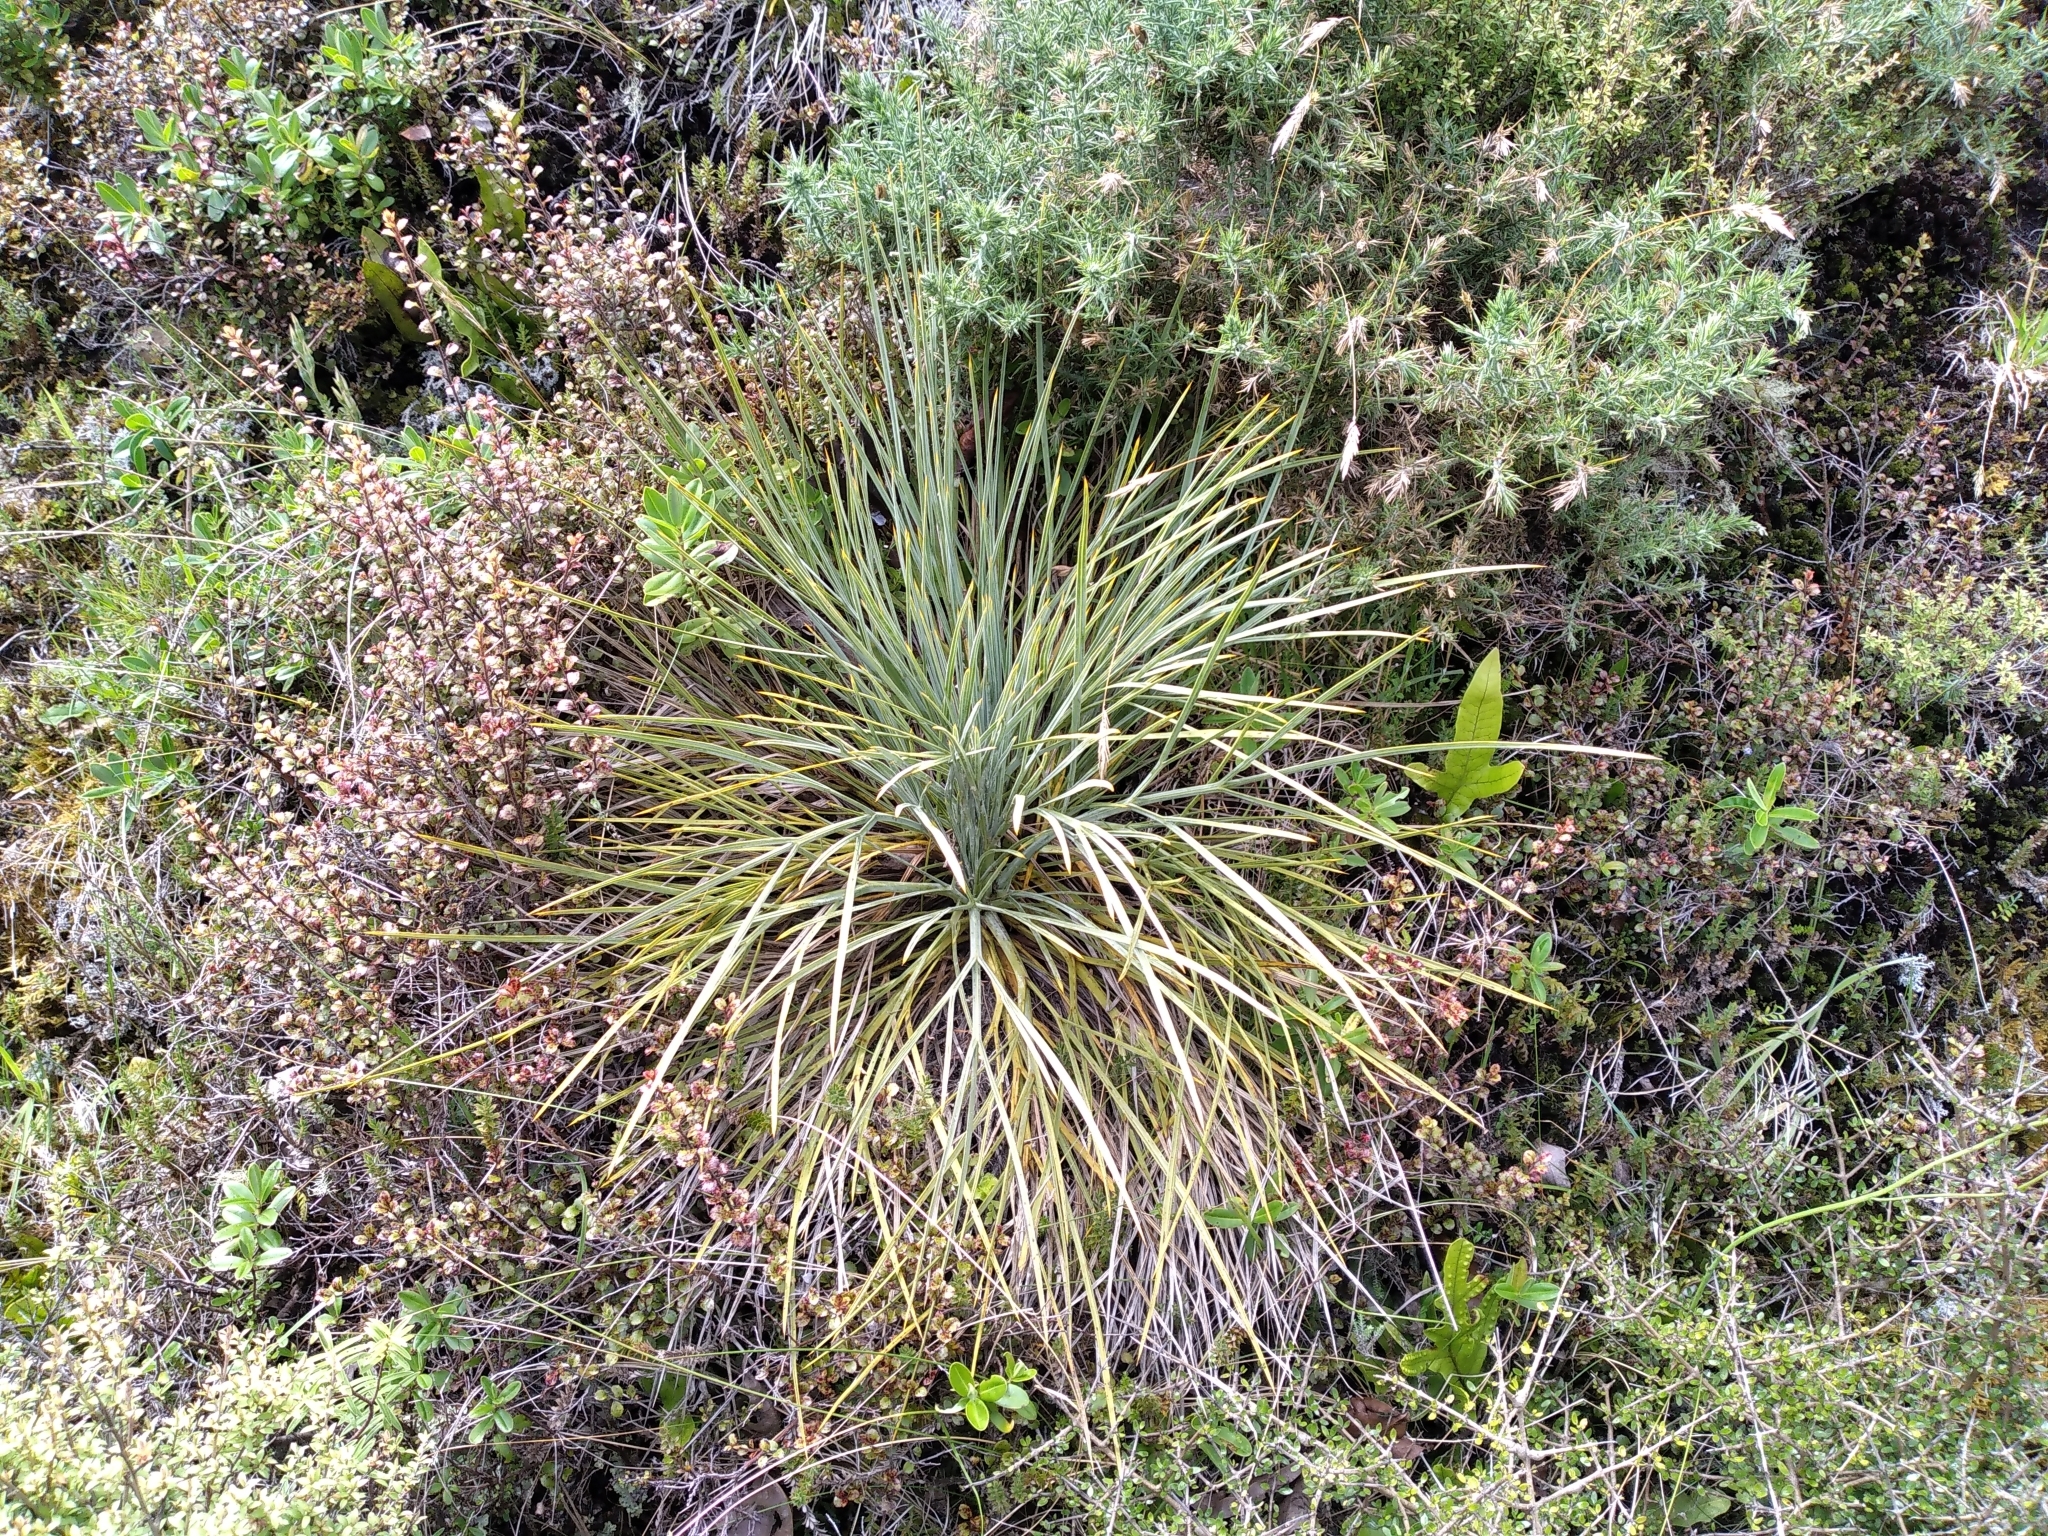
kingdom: Plantae
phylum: Tracheophyta
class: Magnoliopsida
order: Apiales
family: Apiaceae
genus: Aciphylla
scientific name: Aciphylla squarrosa
